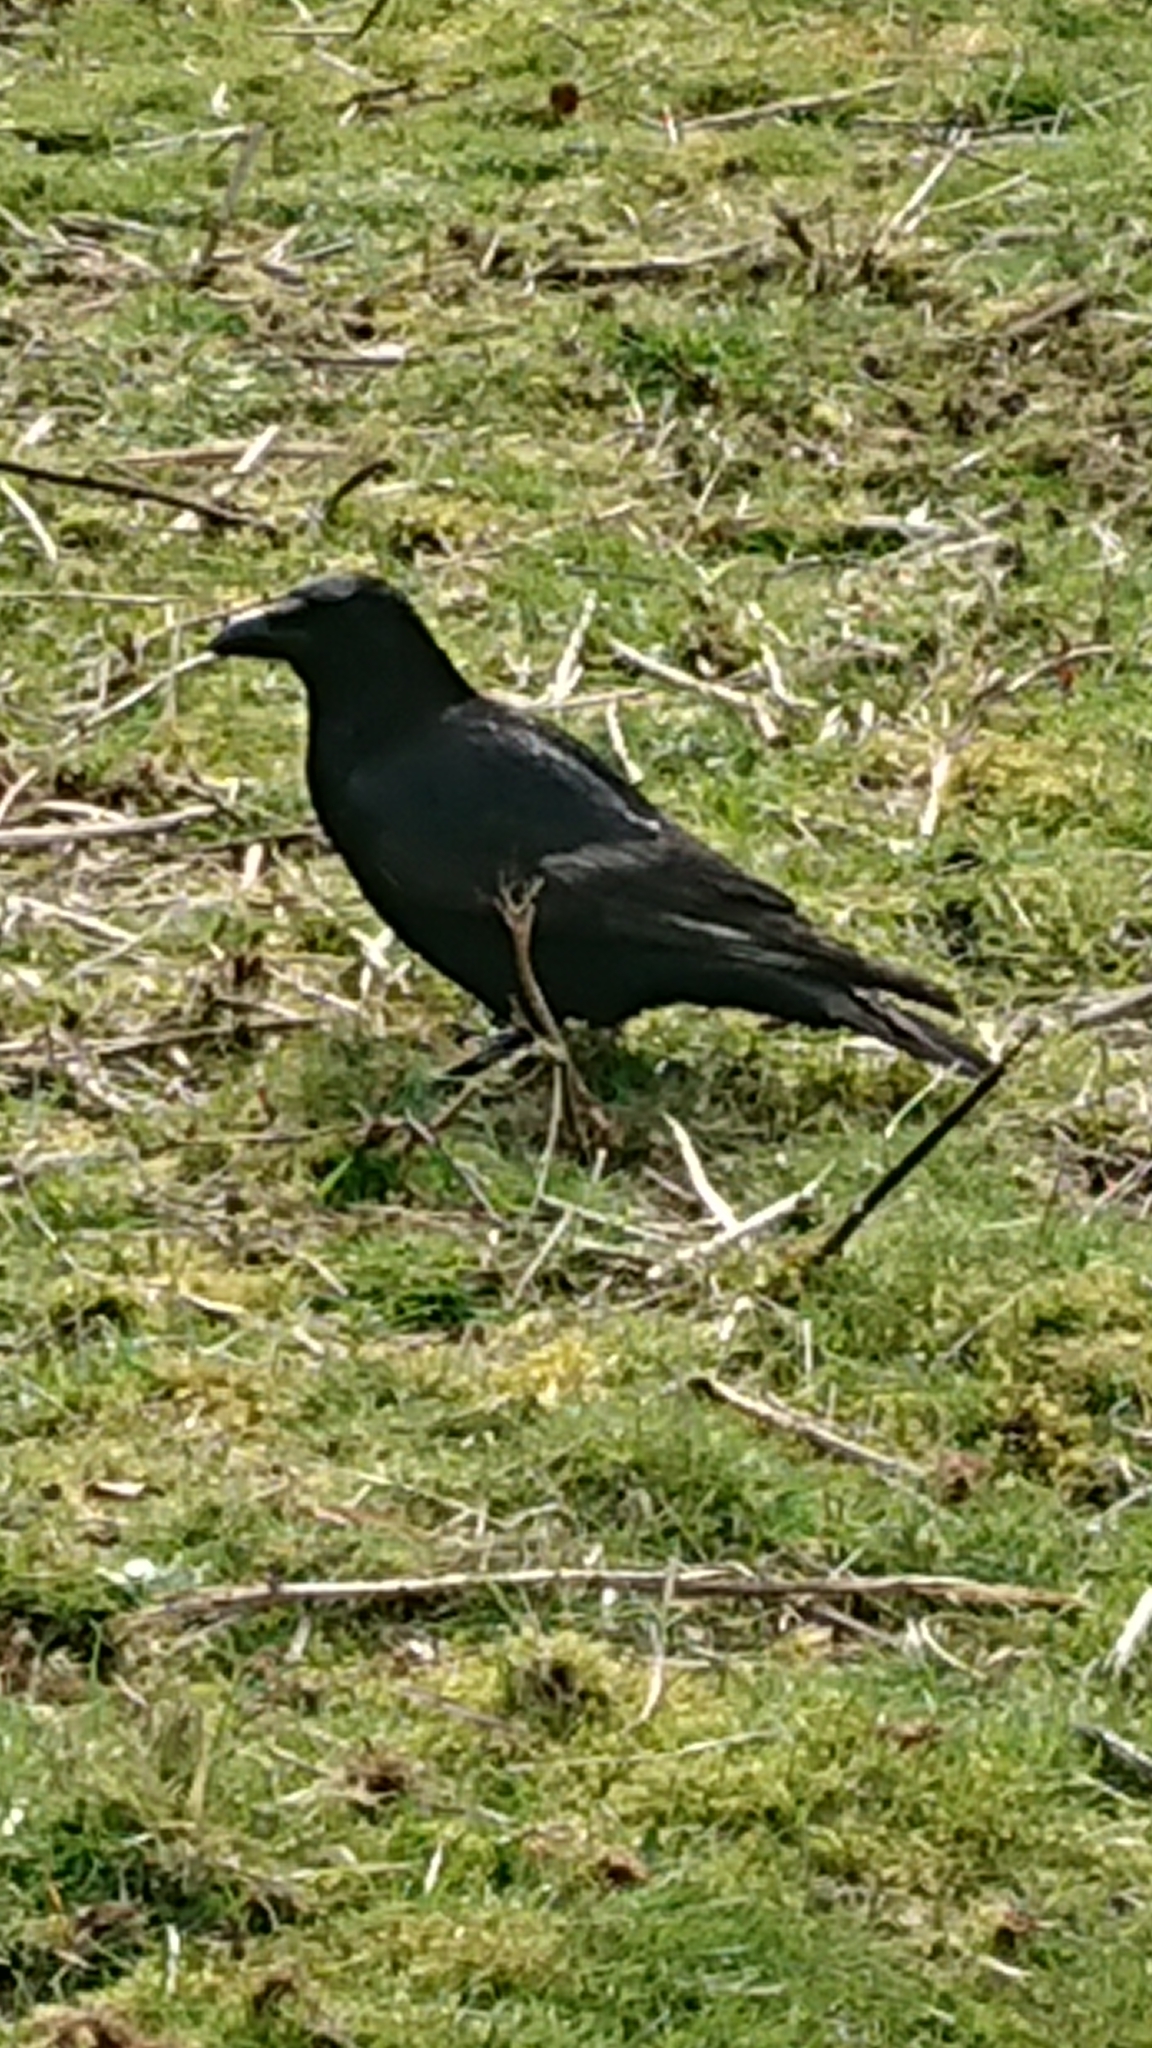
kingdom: Animalia
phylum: Chordata
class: Aves
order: Passeriformes
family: Corvidae
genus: Corvus
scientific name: Corvus corone
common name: Carrion crow
